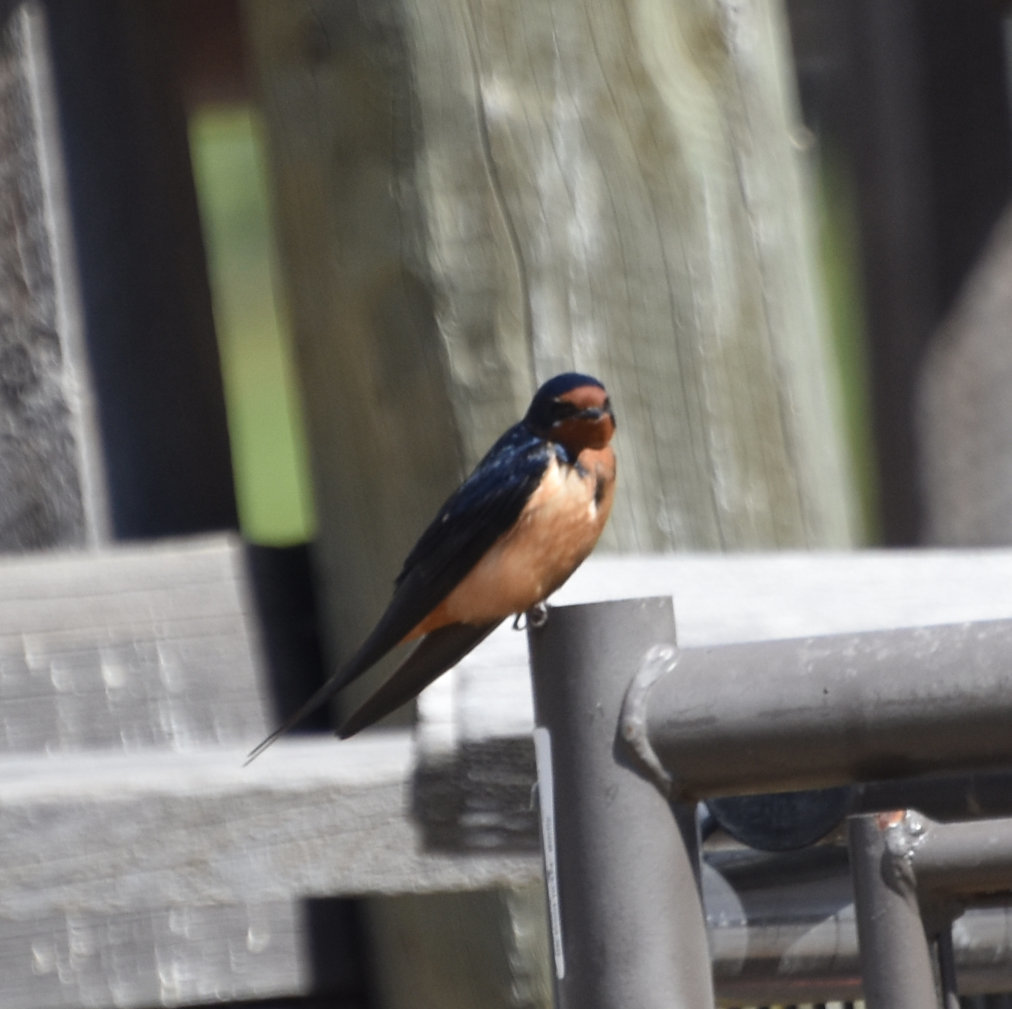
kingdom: Animalia
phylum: Chordata
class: Aves
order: Passeriformes
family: Hirundinidae
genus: Hirundo
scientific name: Hirundo rustica
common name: Barn swallow
